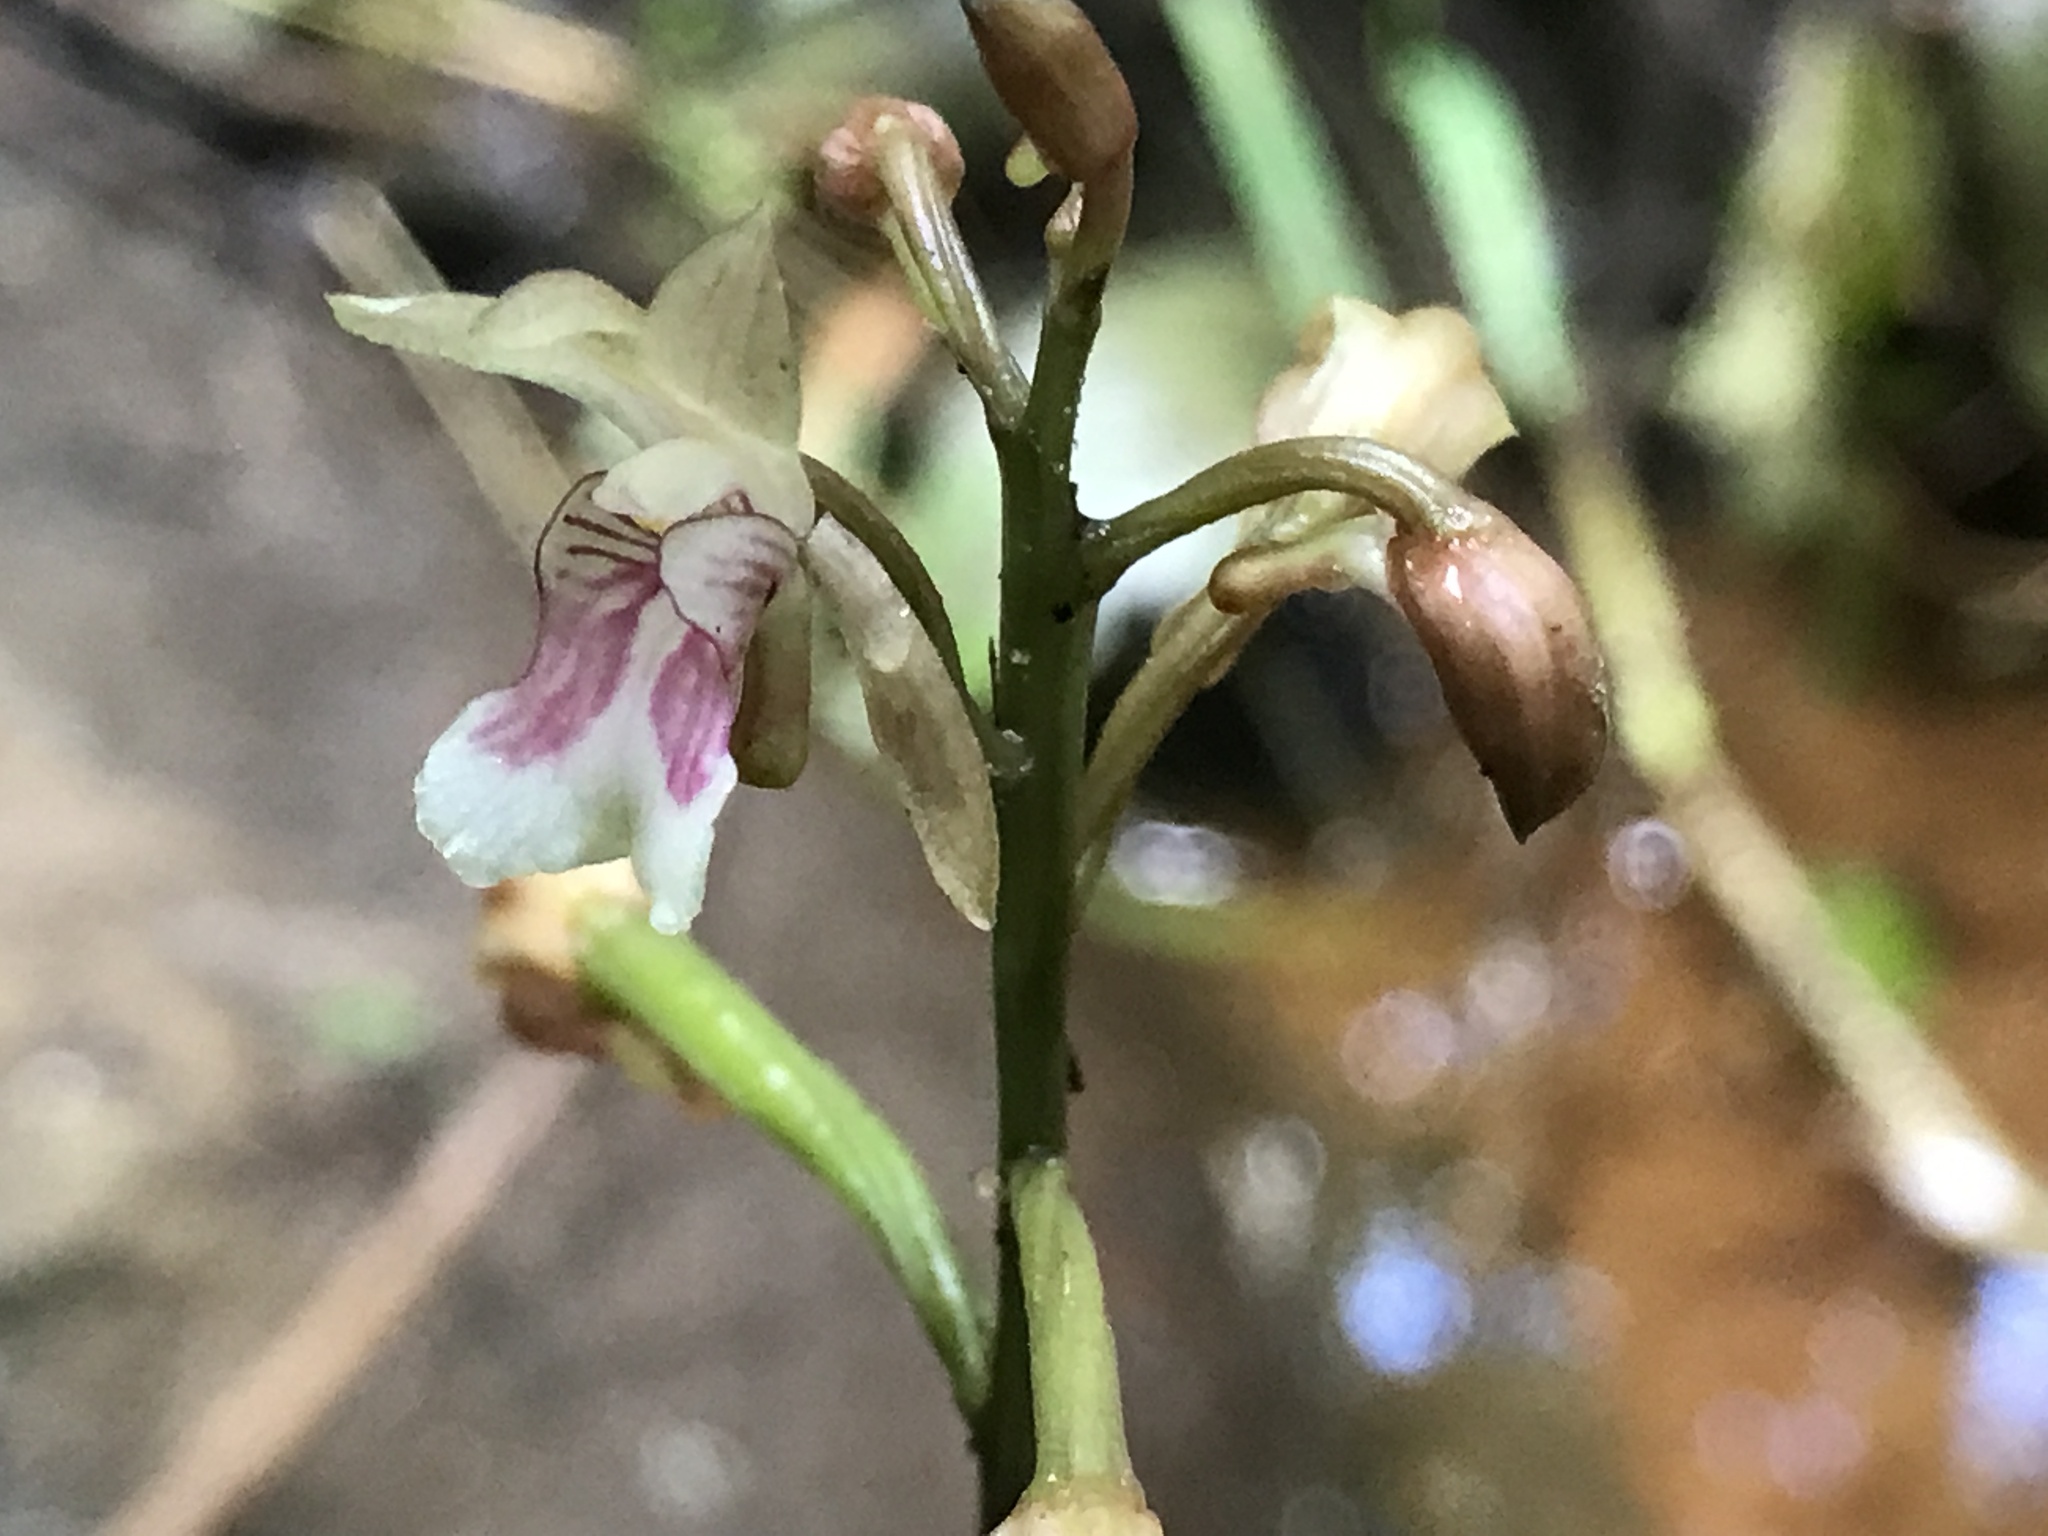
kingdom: Plantae
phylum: Tracheophyta
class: Liliopsida
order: Asparagales
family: Orchidaceae
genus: Eulophia
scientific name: Eulophia maculata
